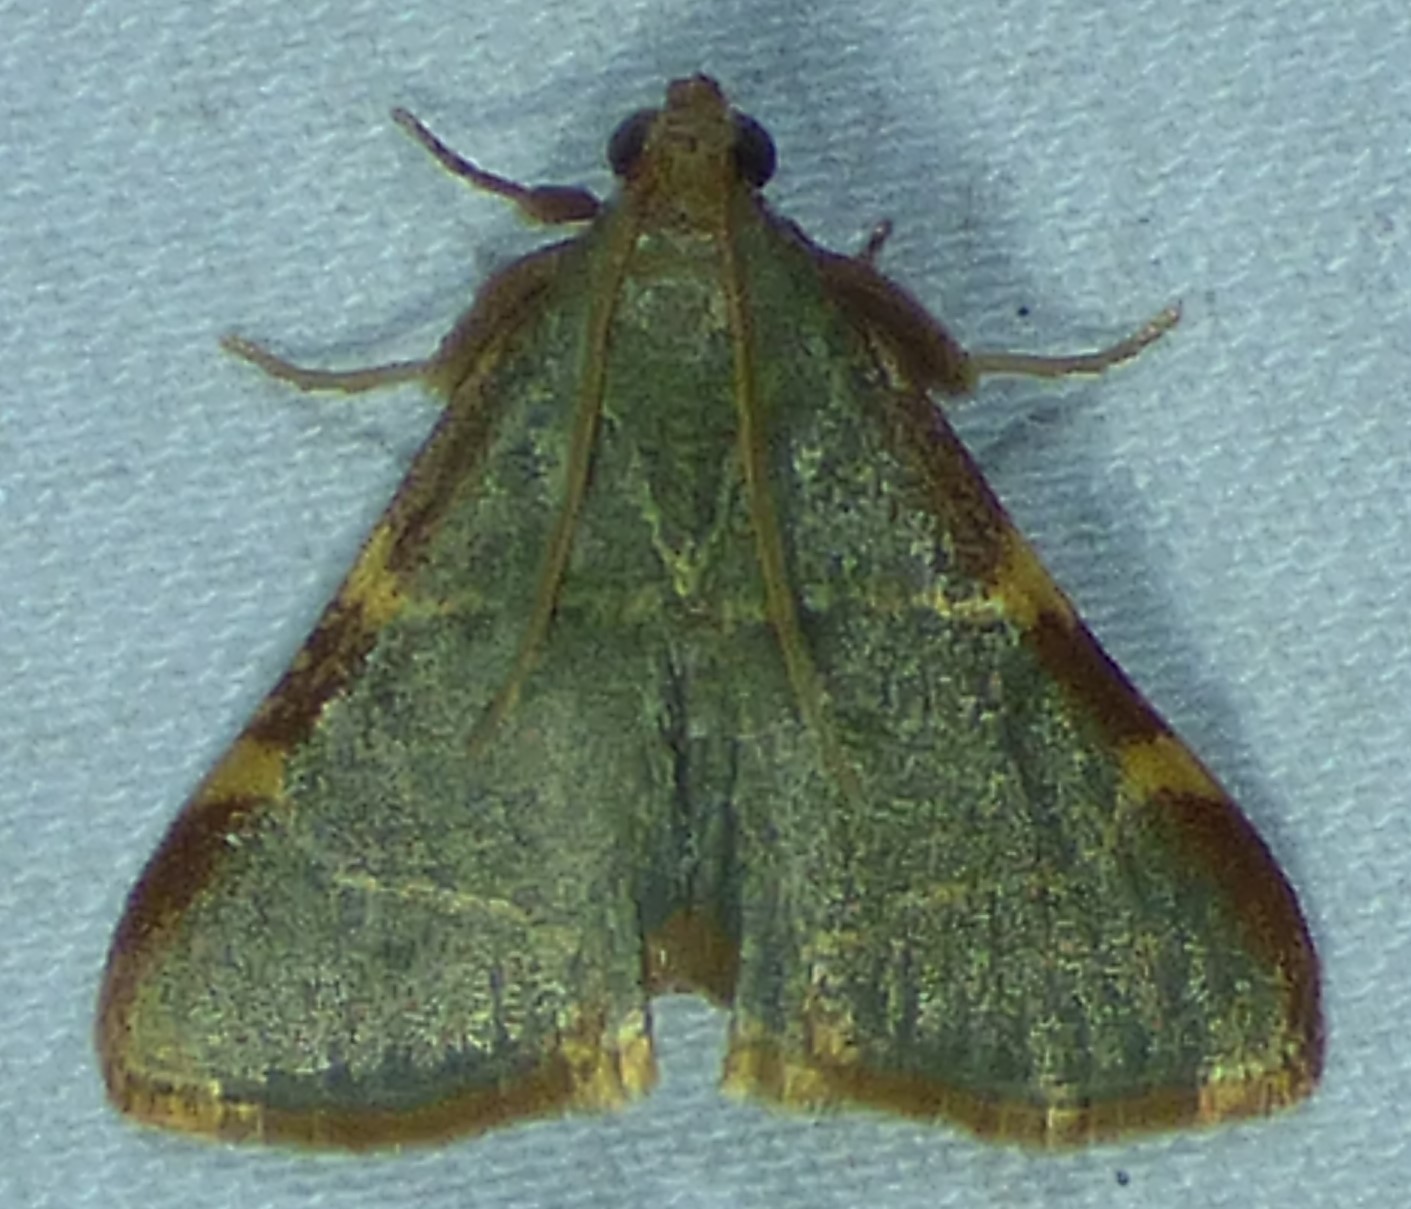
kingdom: Animalia
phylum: Arthropoda
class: Insecta
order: Lepidoptera
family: Pyralidae
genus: Hypsopygia
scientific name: Hypsopygia binodulalis
